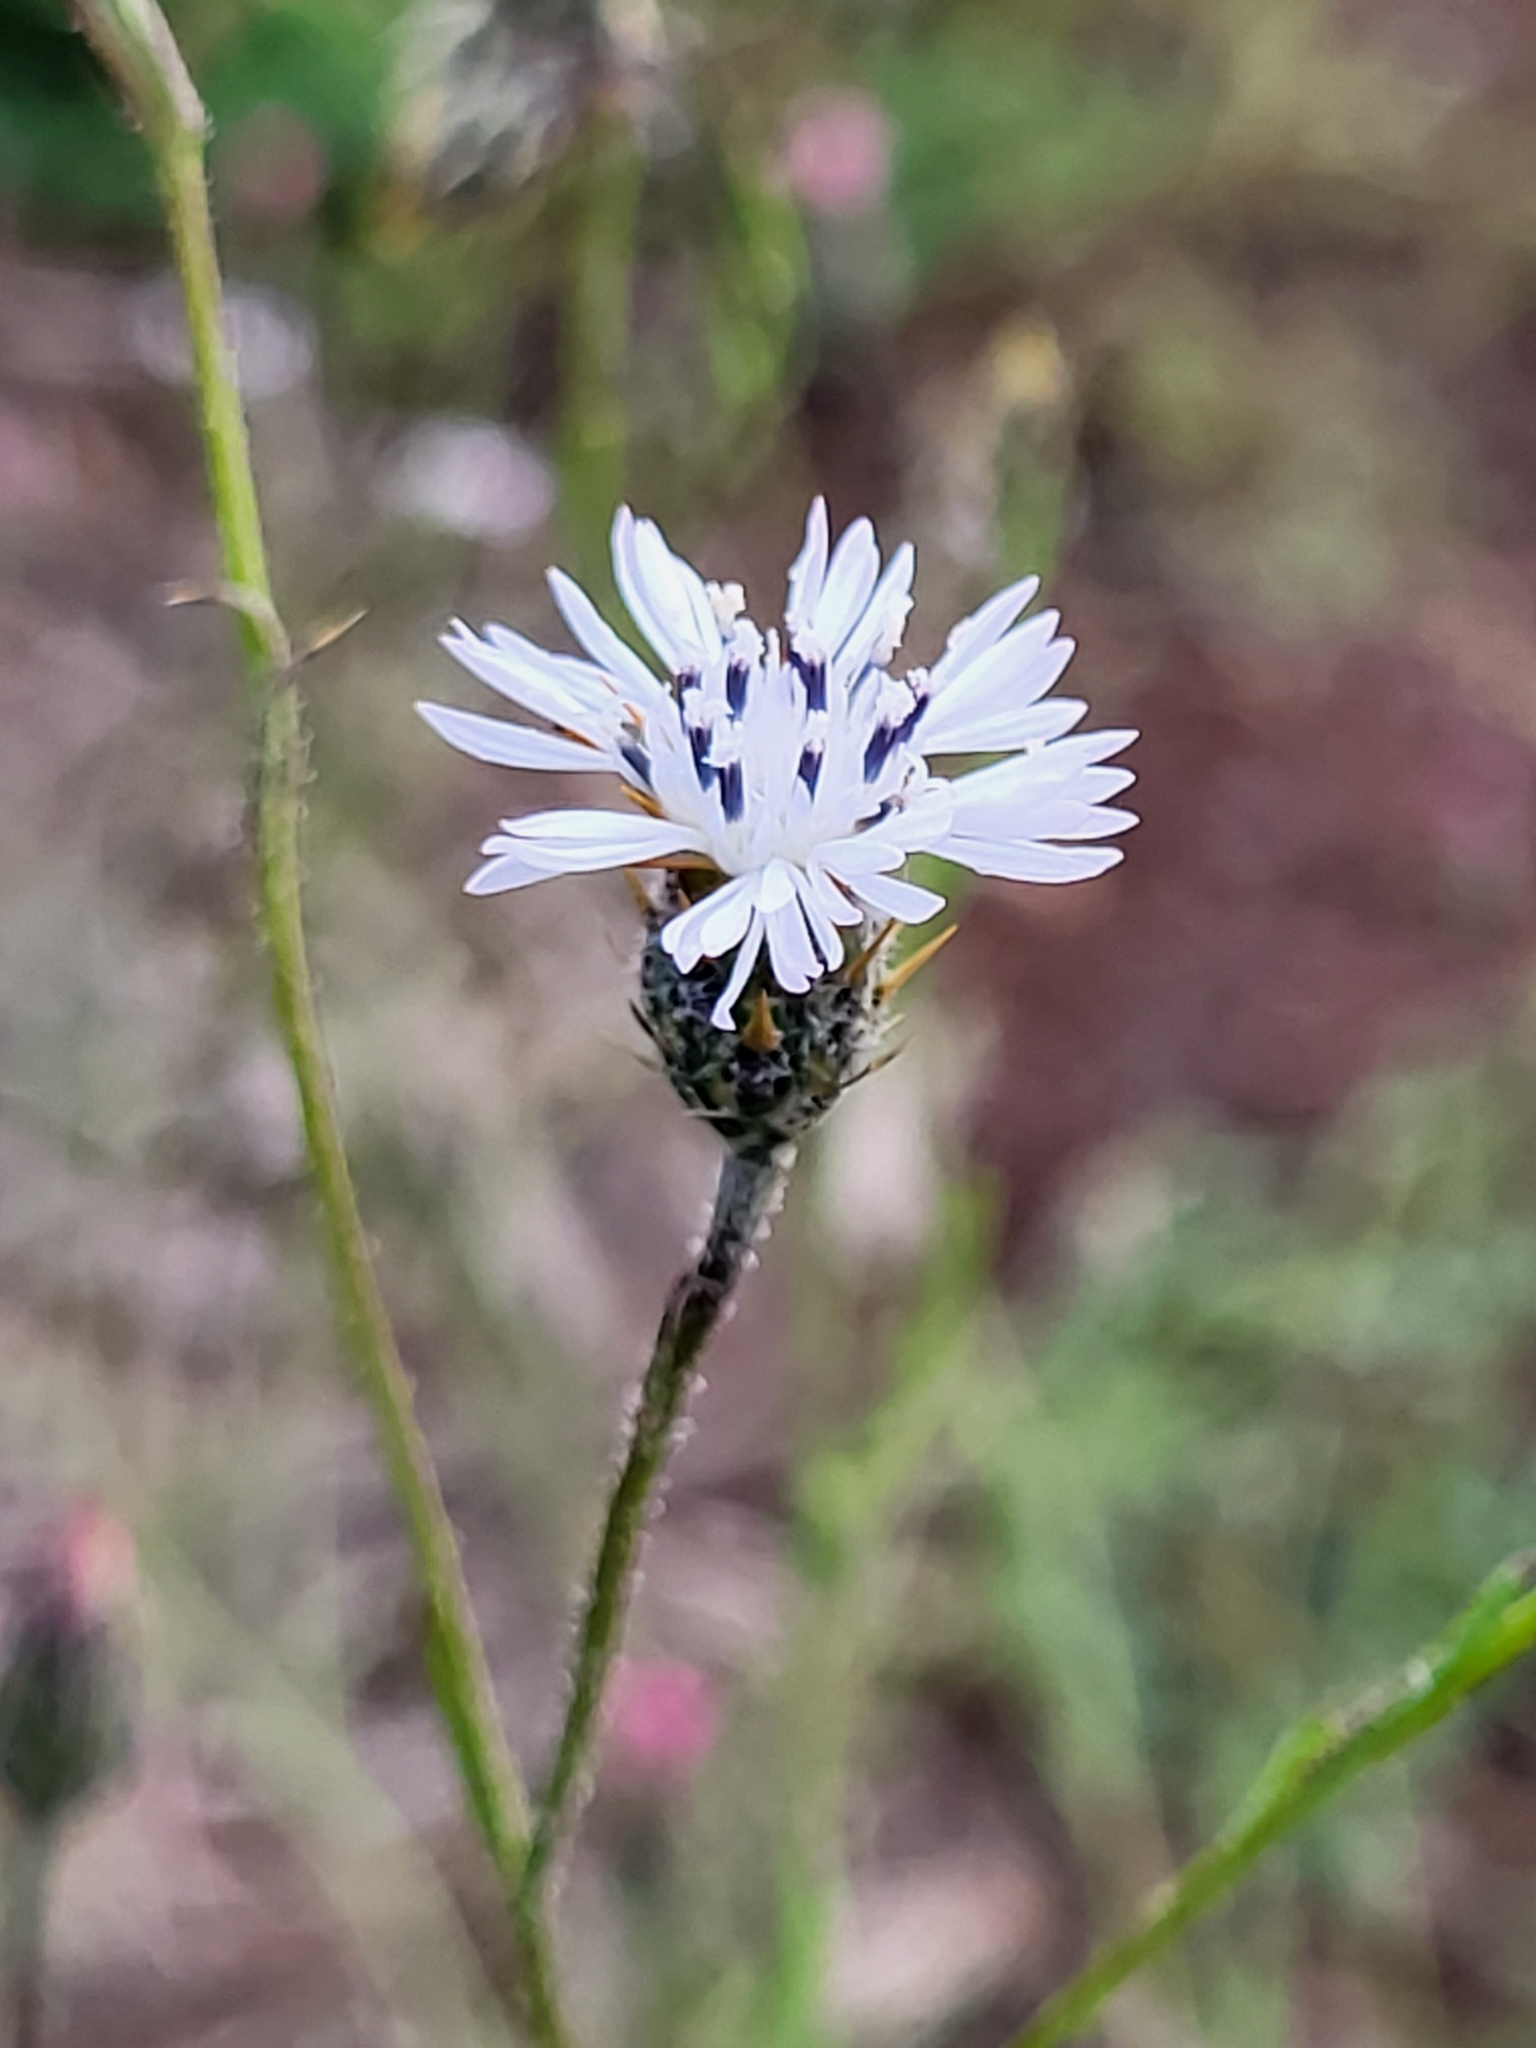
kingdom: Plantae
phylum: Tracheophyta
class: Magnoliopsida
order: Asterales
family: Asteraceae
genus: Volutaria
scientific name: Volutaria canariensis
